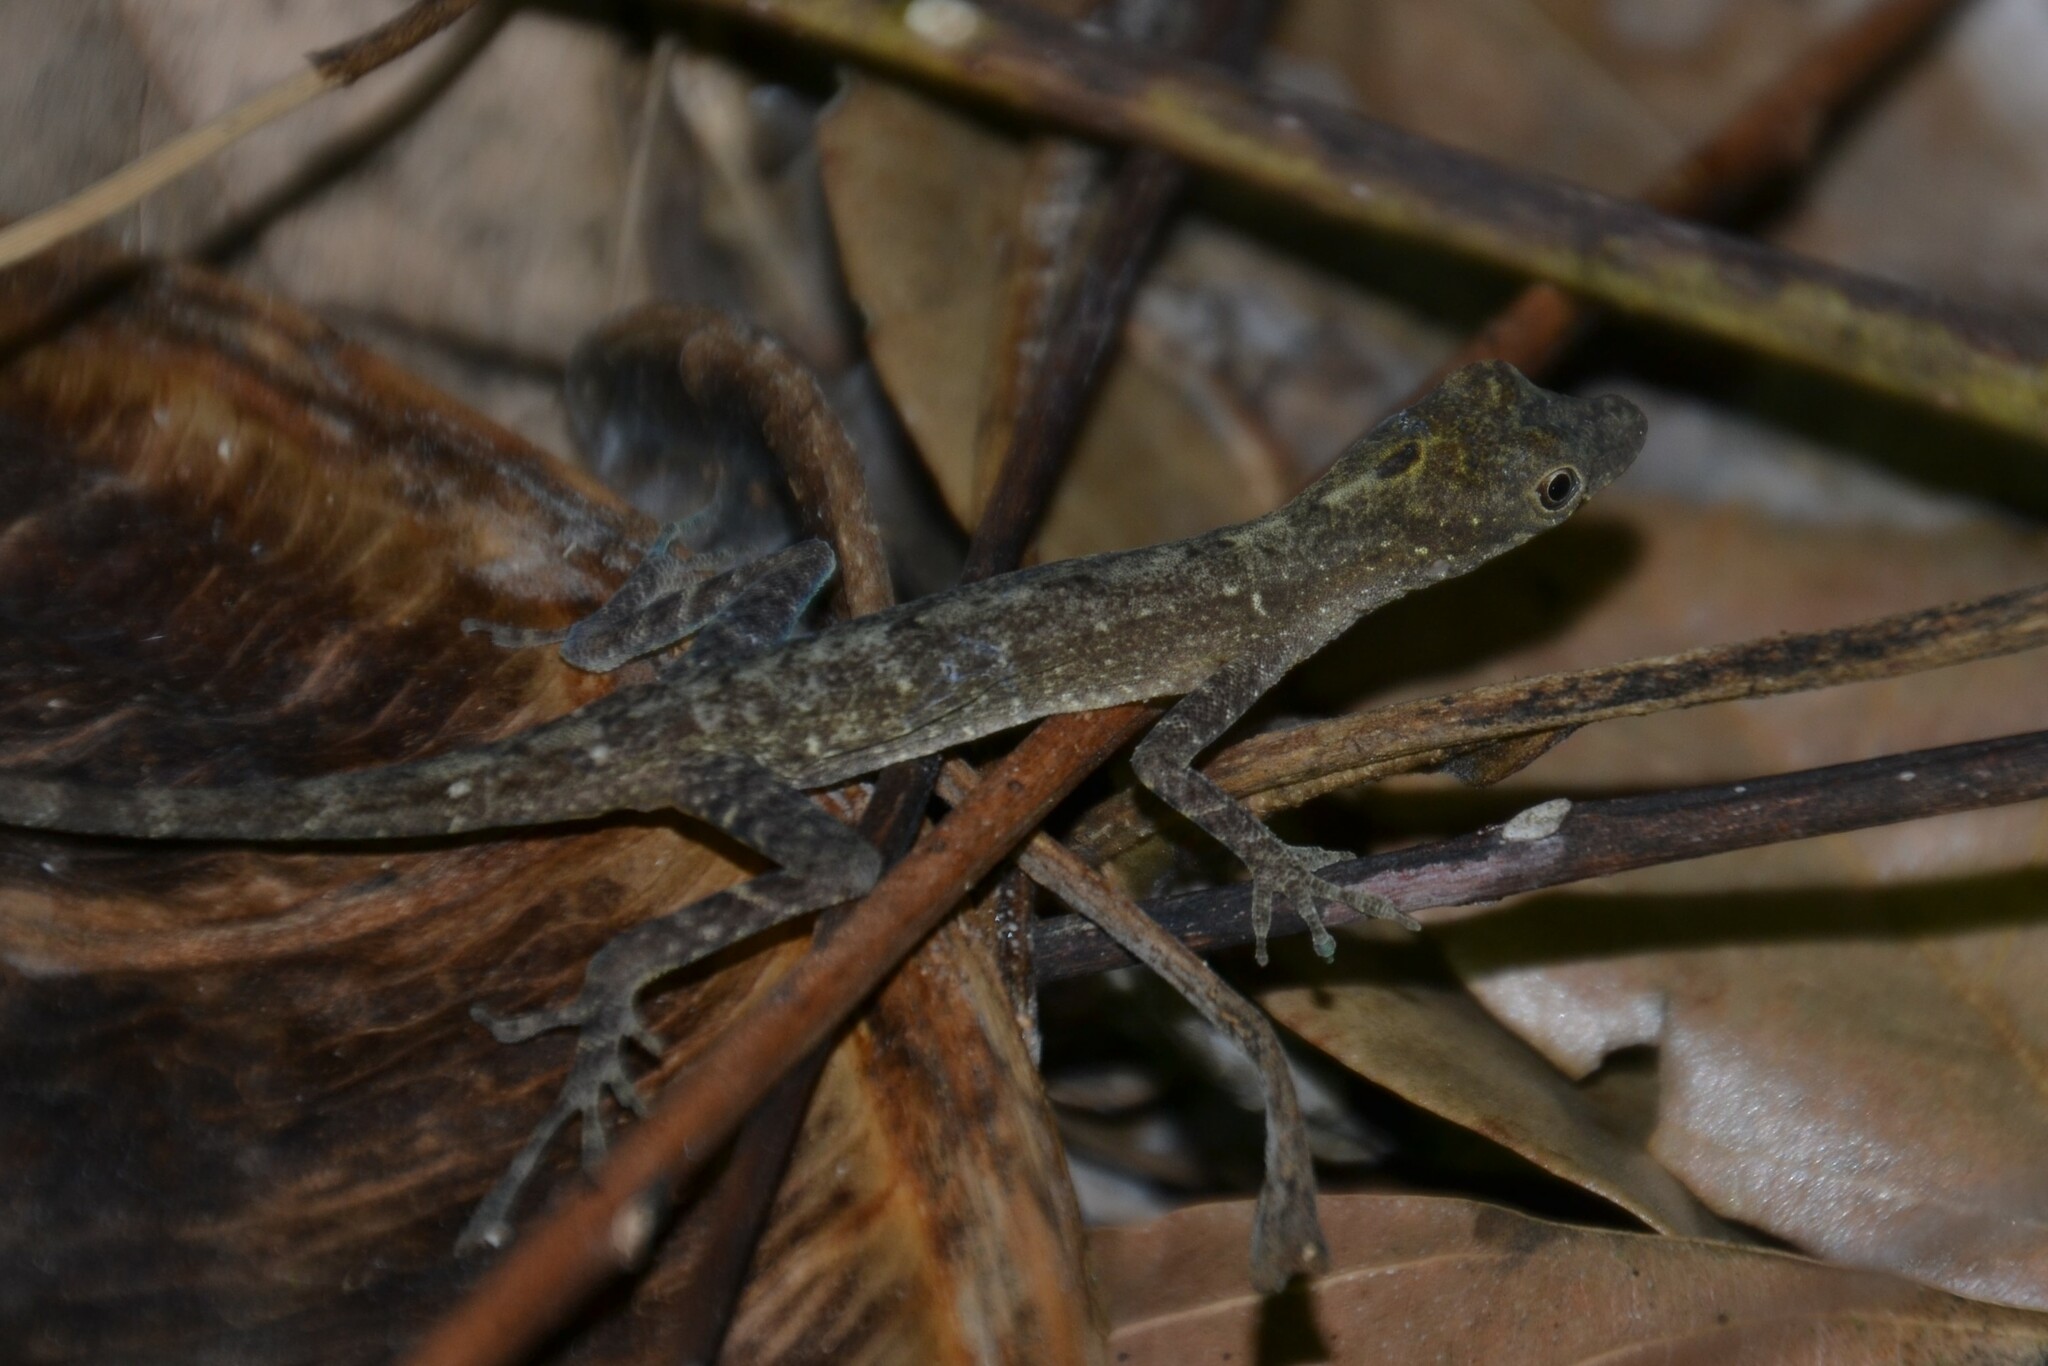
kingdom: Animalia
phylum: Chordata
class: Squamata
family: Dactyloidae
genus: Anolis
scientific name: Anolis cupreus
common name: Copper anole
